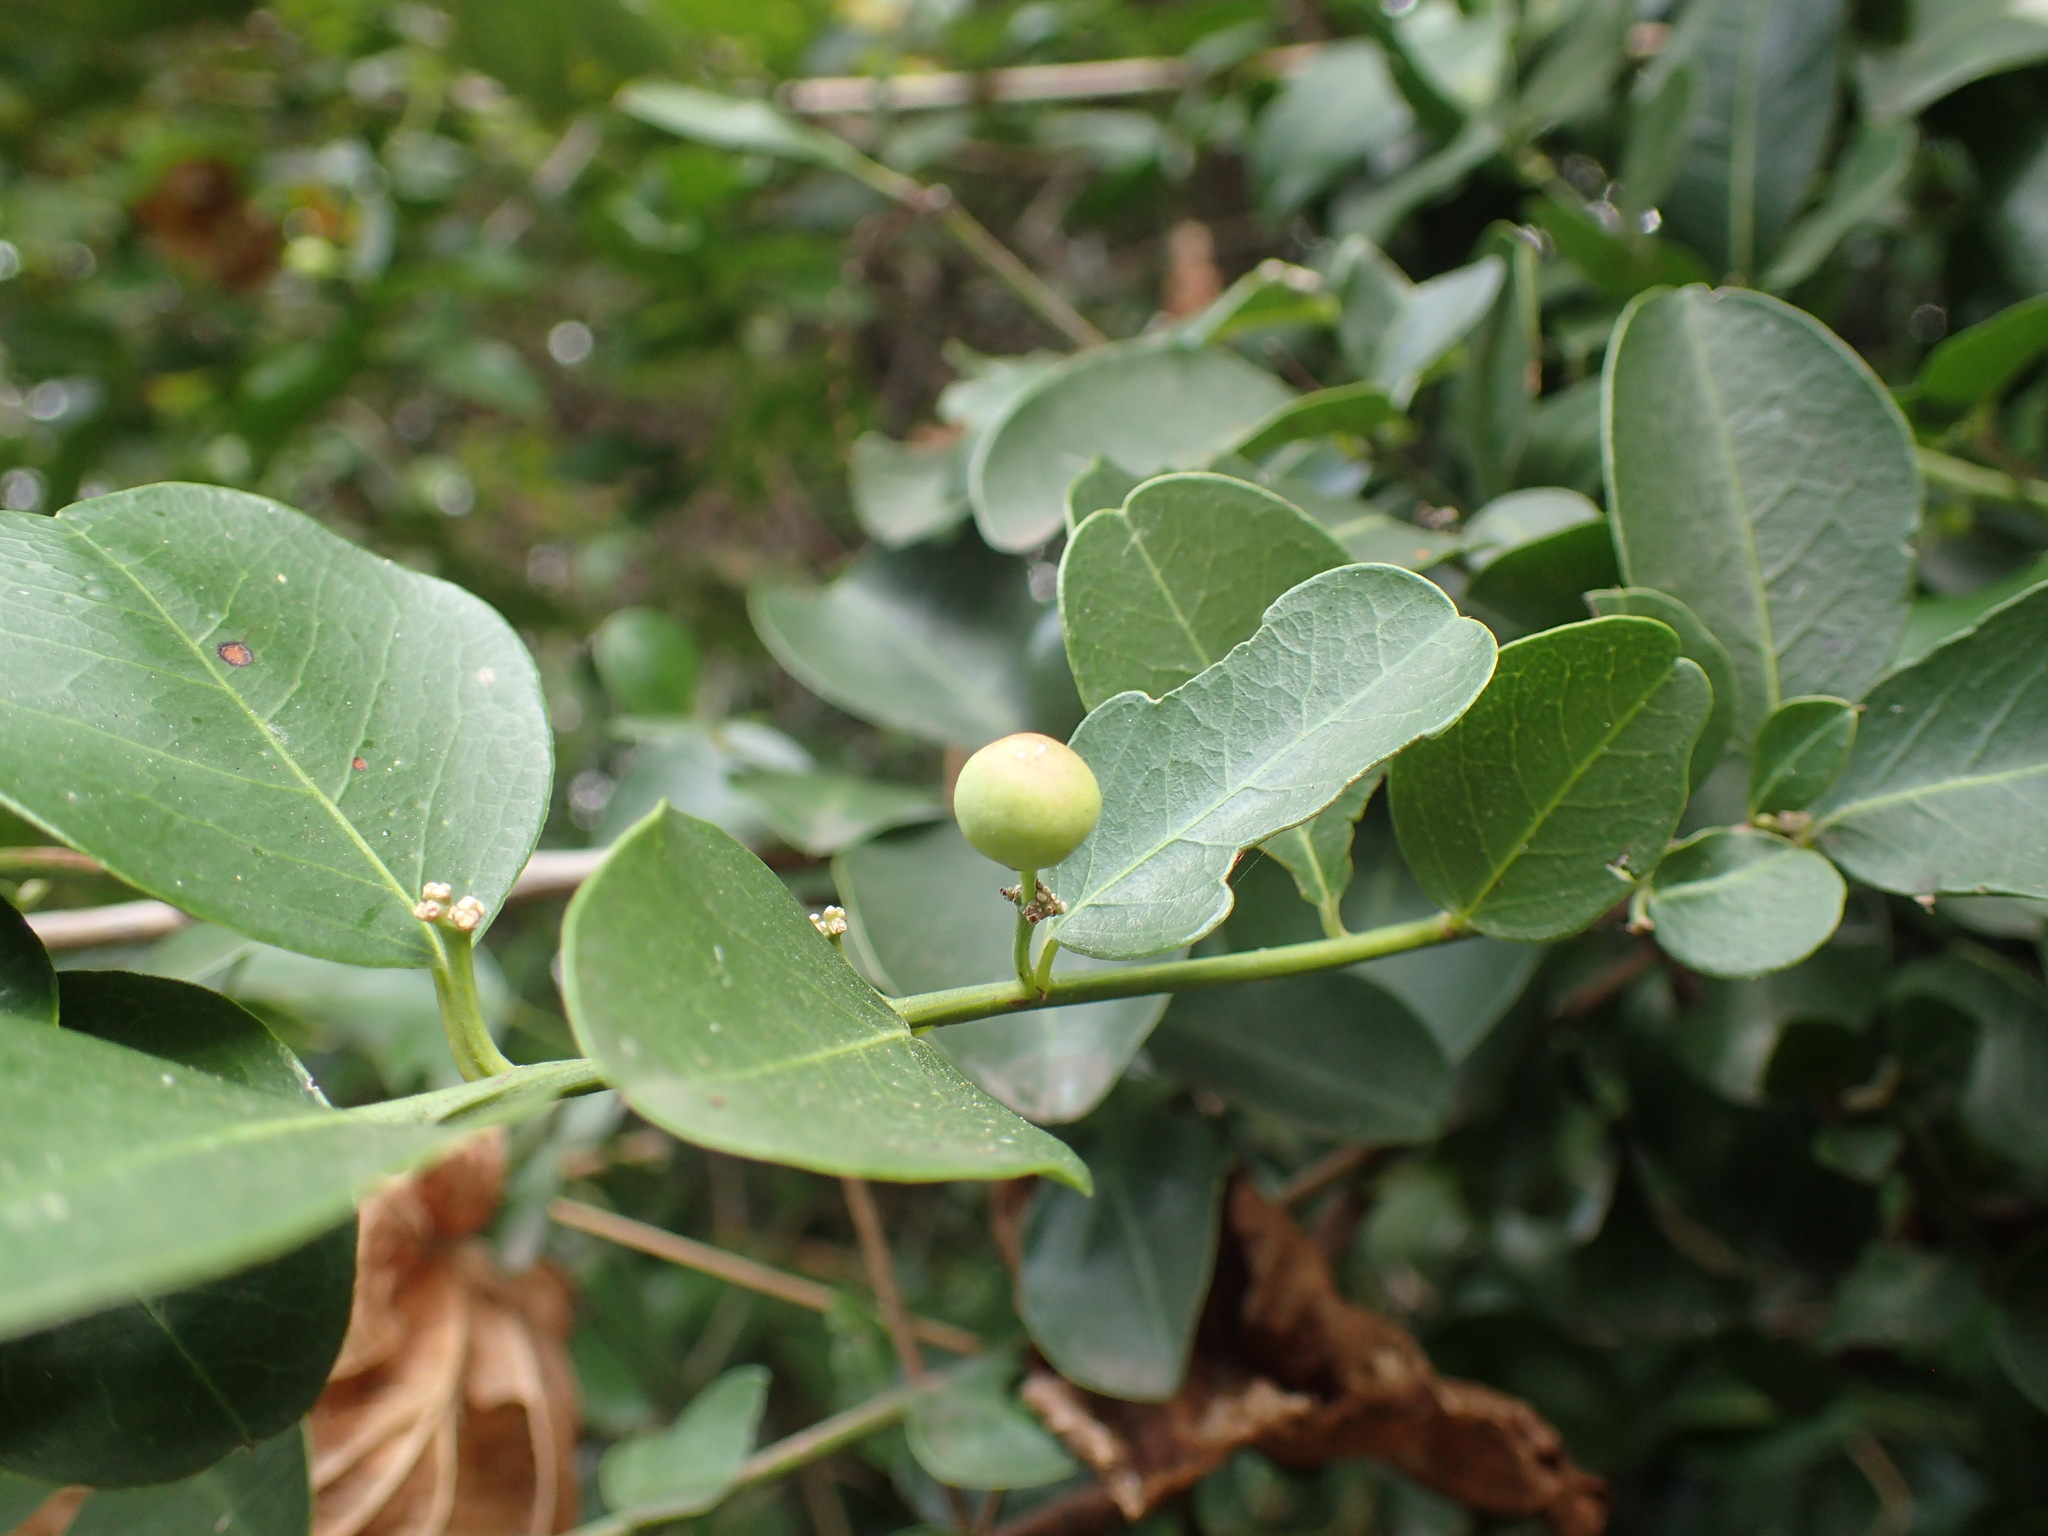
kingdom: Plantae
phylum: Tracheophyta
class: Magnoliopsida
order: Rosales
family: Rhamnaceae
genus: Scutia
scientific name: Scutia myrtina
